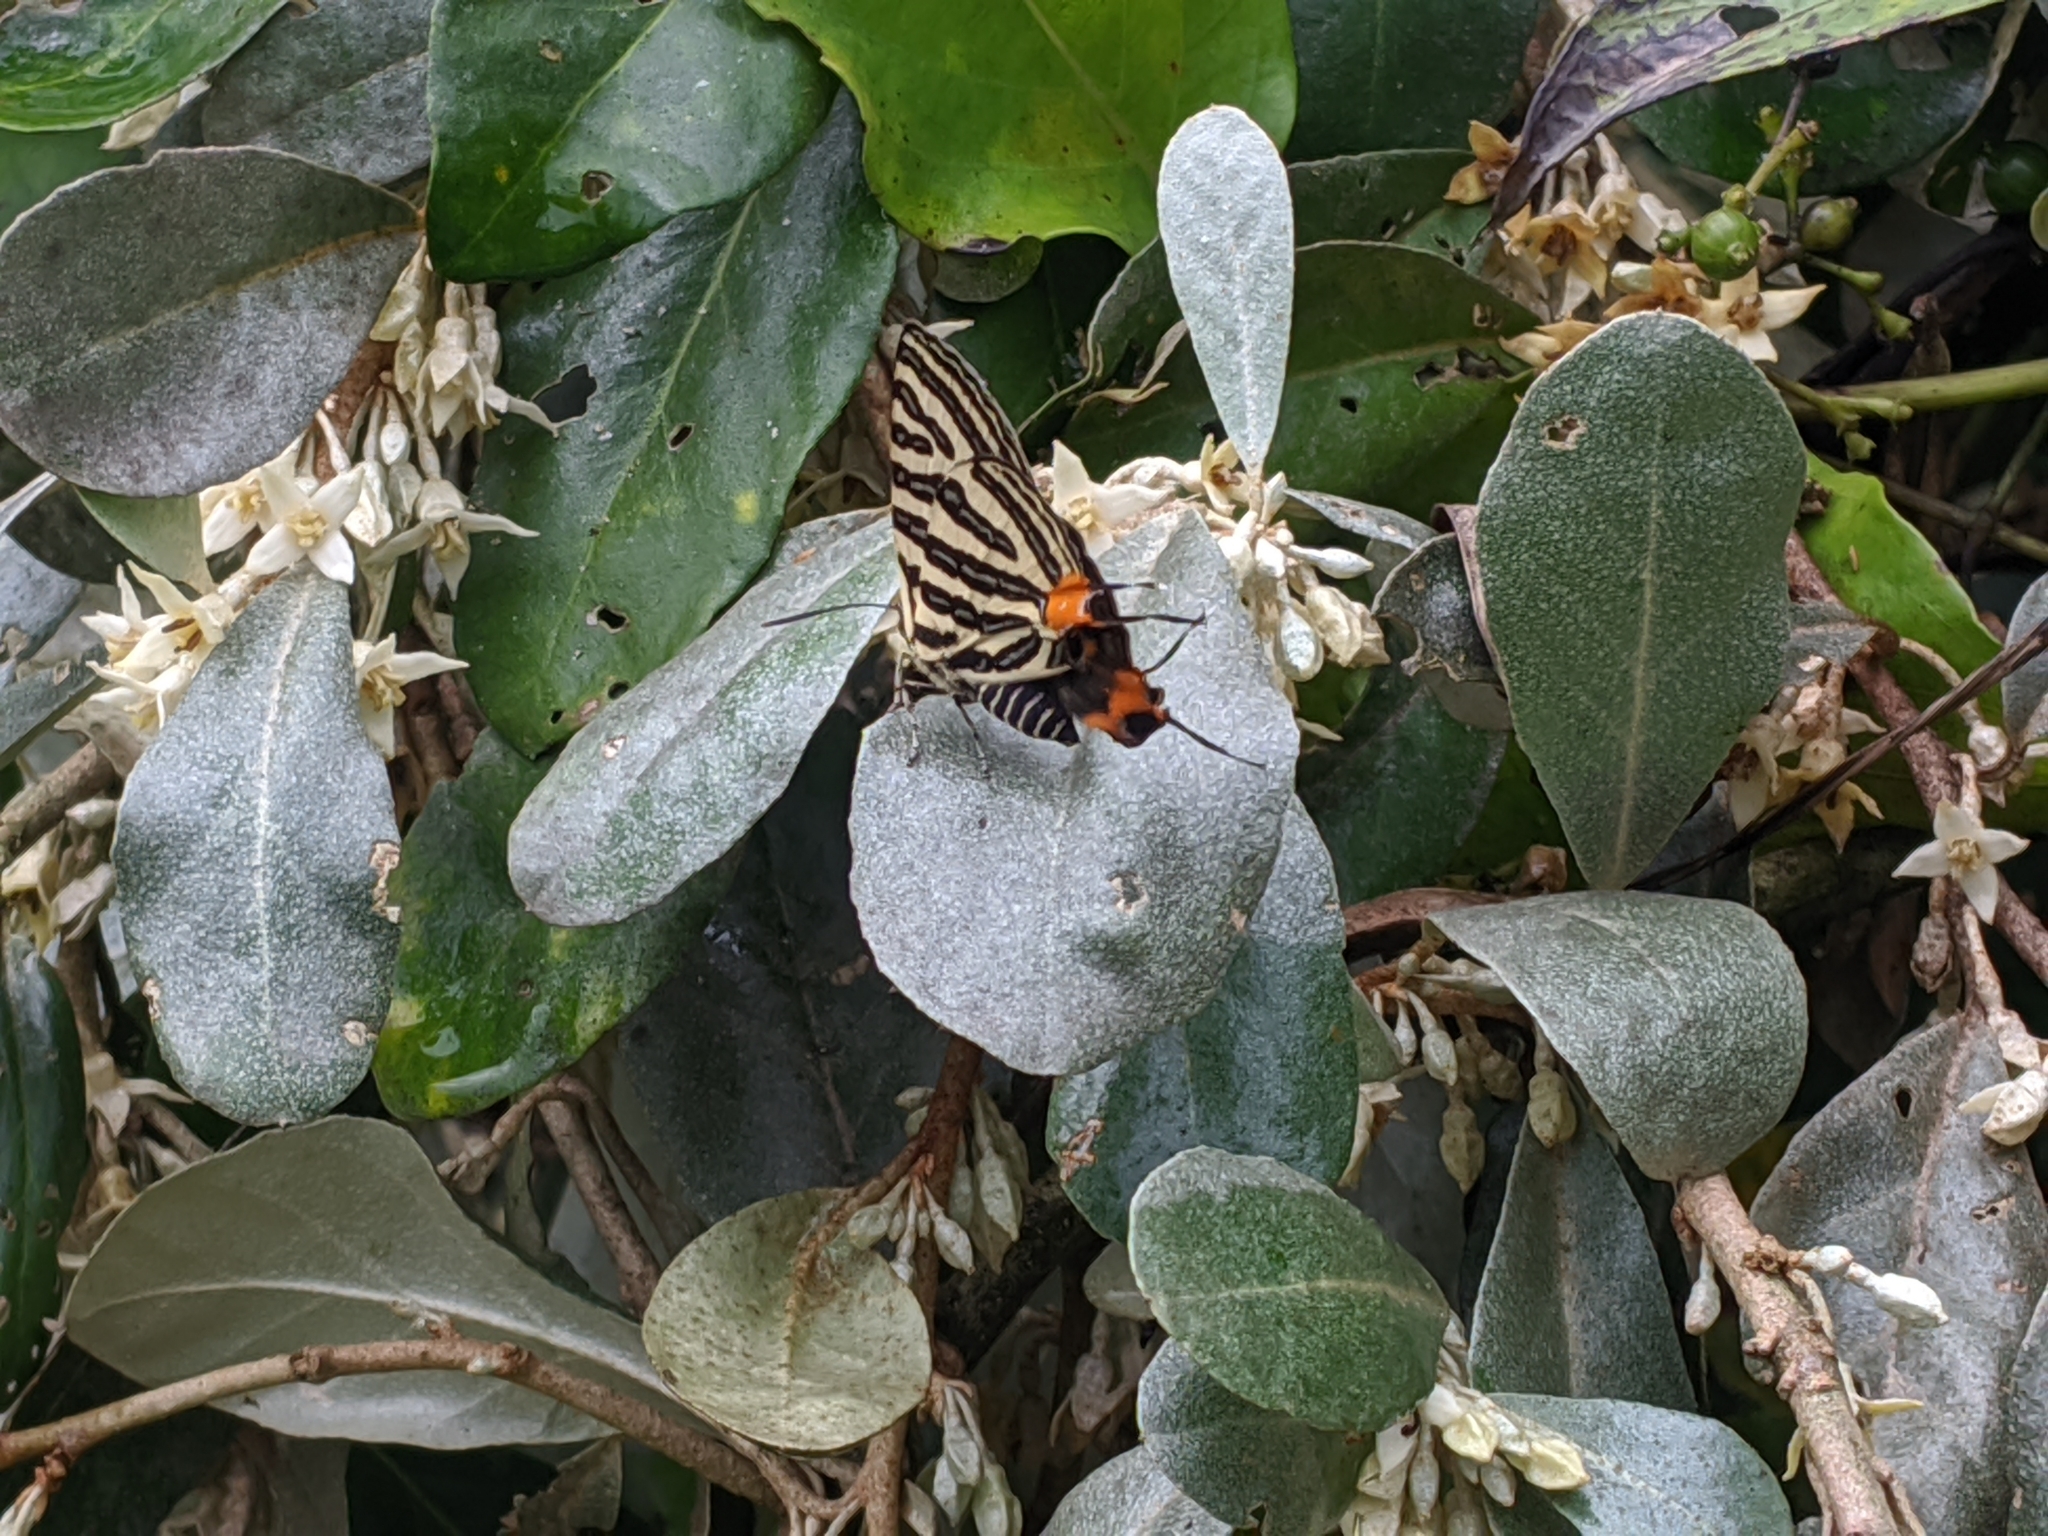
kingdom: Animalia
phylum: Arthropoda
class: Insecta
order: Lepidoptera
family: Lycaenidae
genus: Cigaritis
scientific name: Cigaritis lohita
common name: Long-banded silverline
